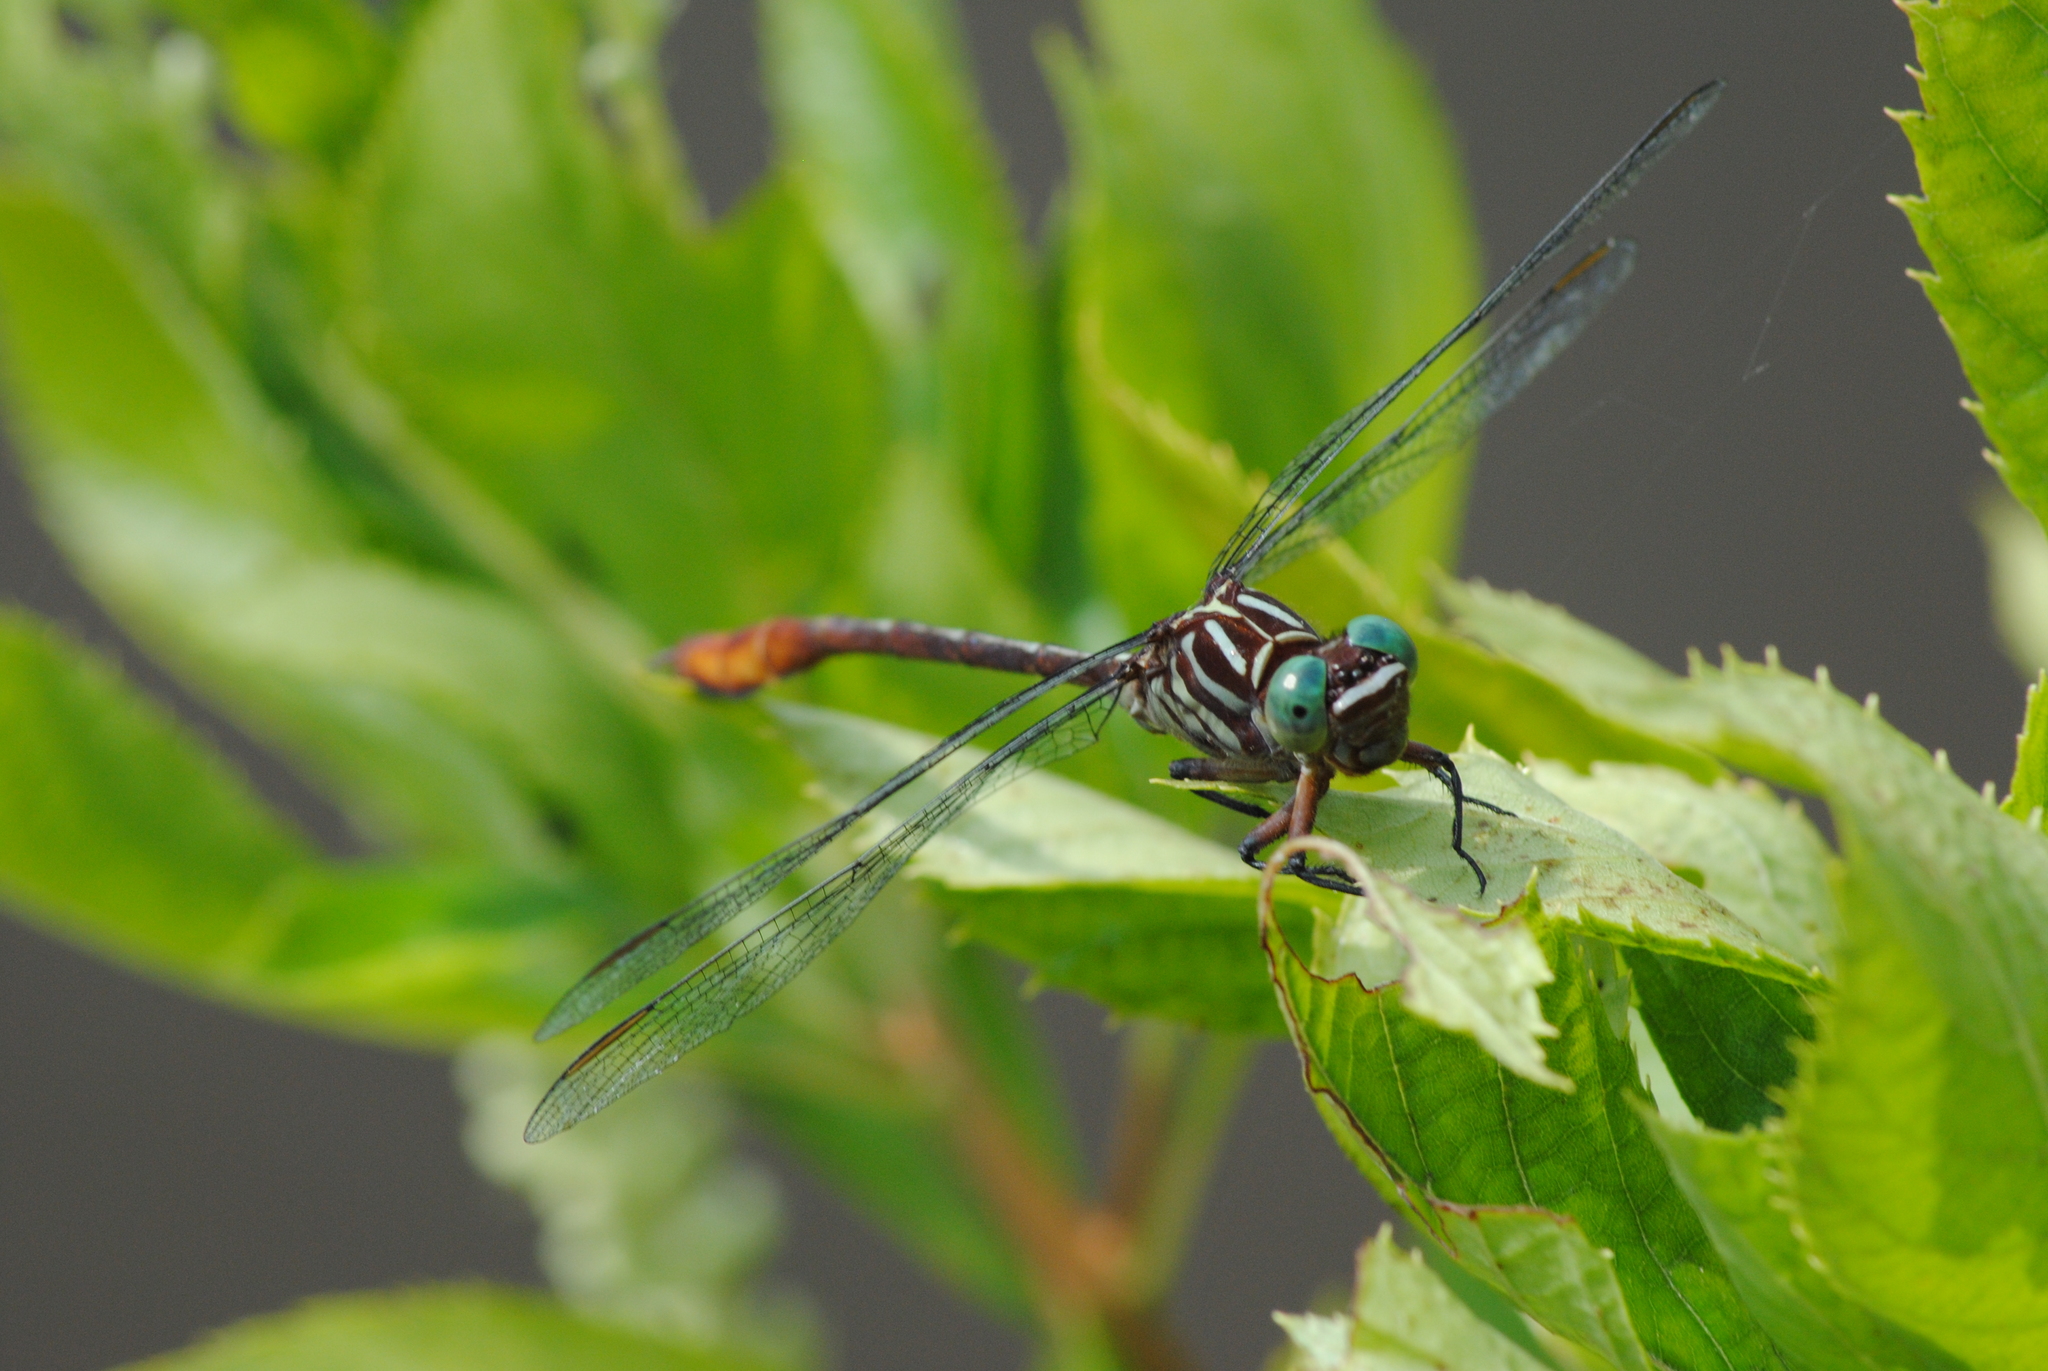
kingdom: Animalia
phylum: Arthropoda
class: Insecta
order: Odonata
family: Gomphidae
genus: Stylurus
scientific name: Stylurus plagiatus
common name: Russet-tipped clubtail
